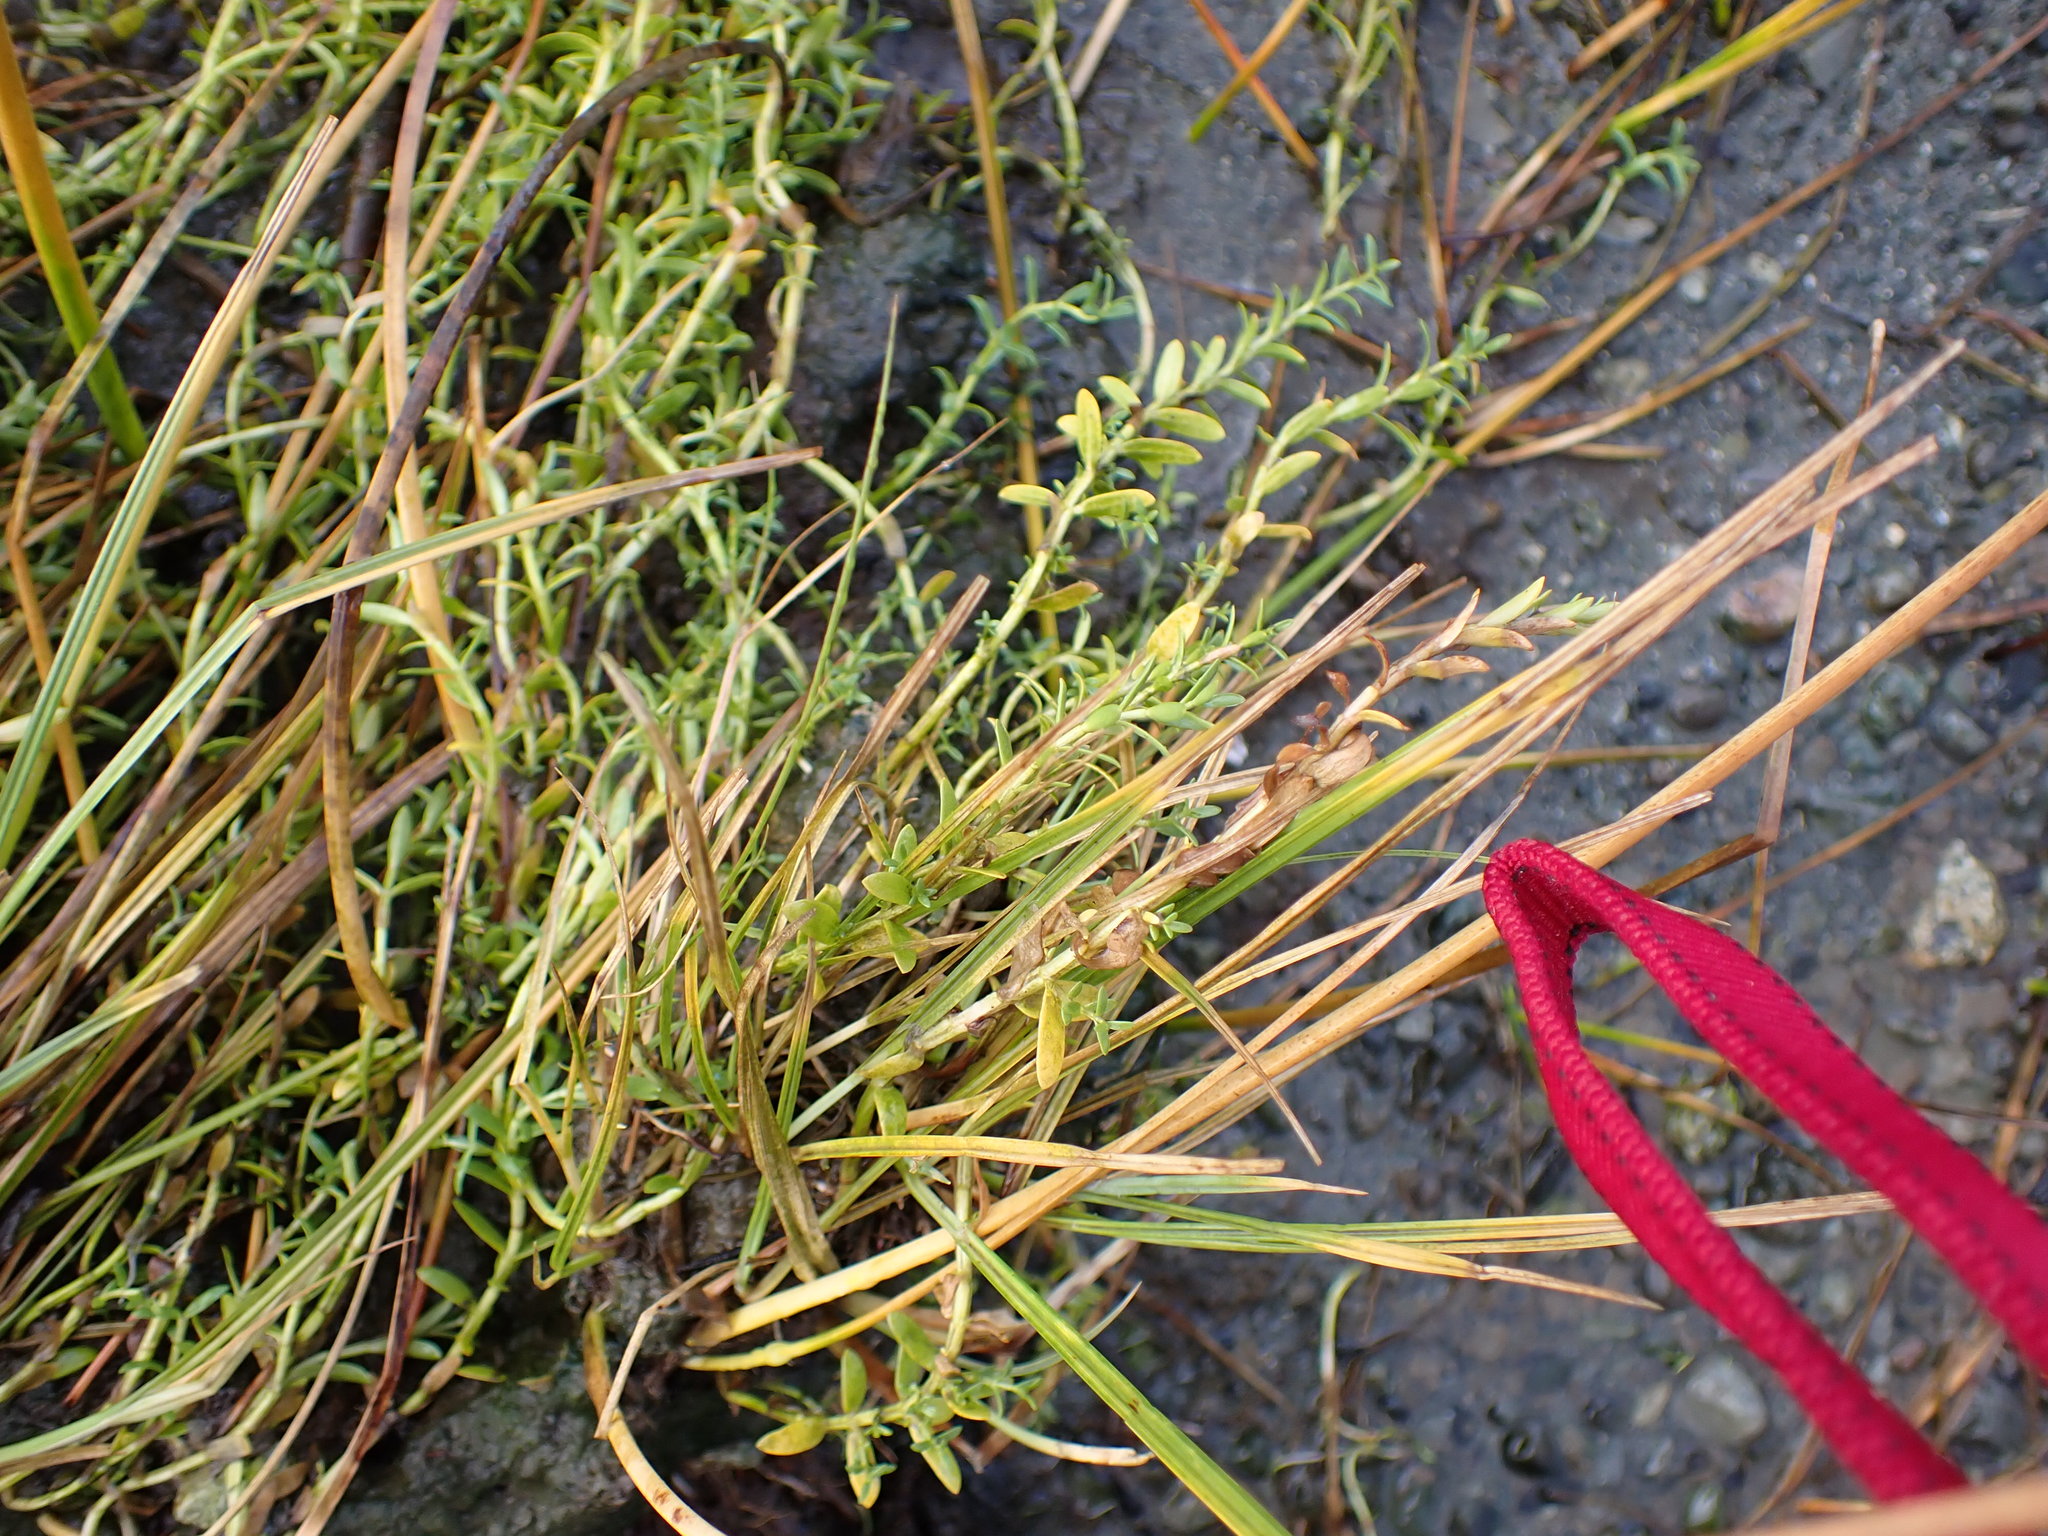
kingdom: Plantae
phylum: Tracheophyta
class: Magnoliopsida
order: Ericales
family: Primulaceae
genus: Lysimachia
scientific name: Lysimachia maritima
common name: Sea milkwort
